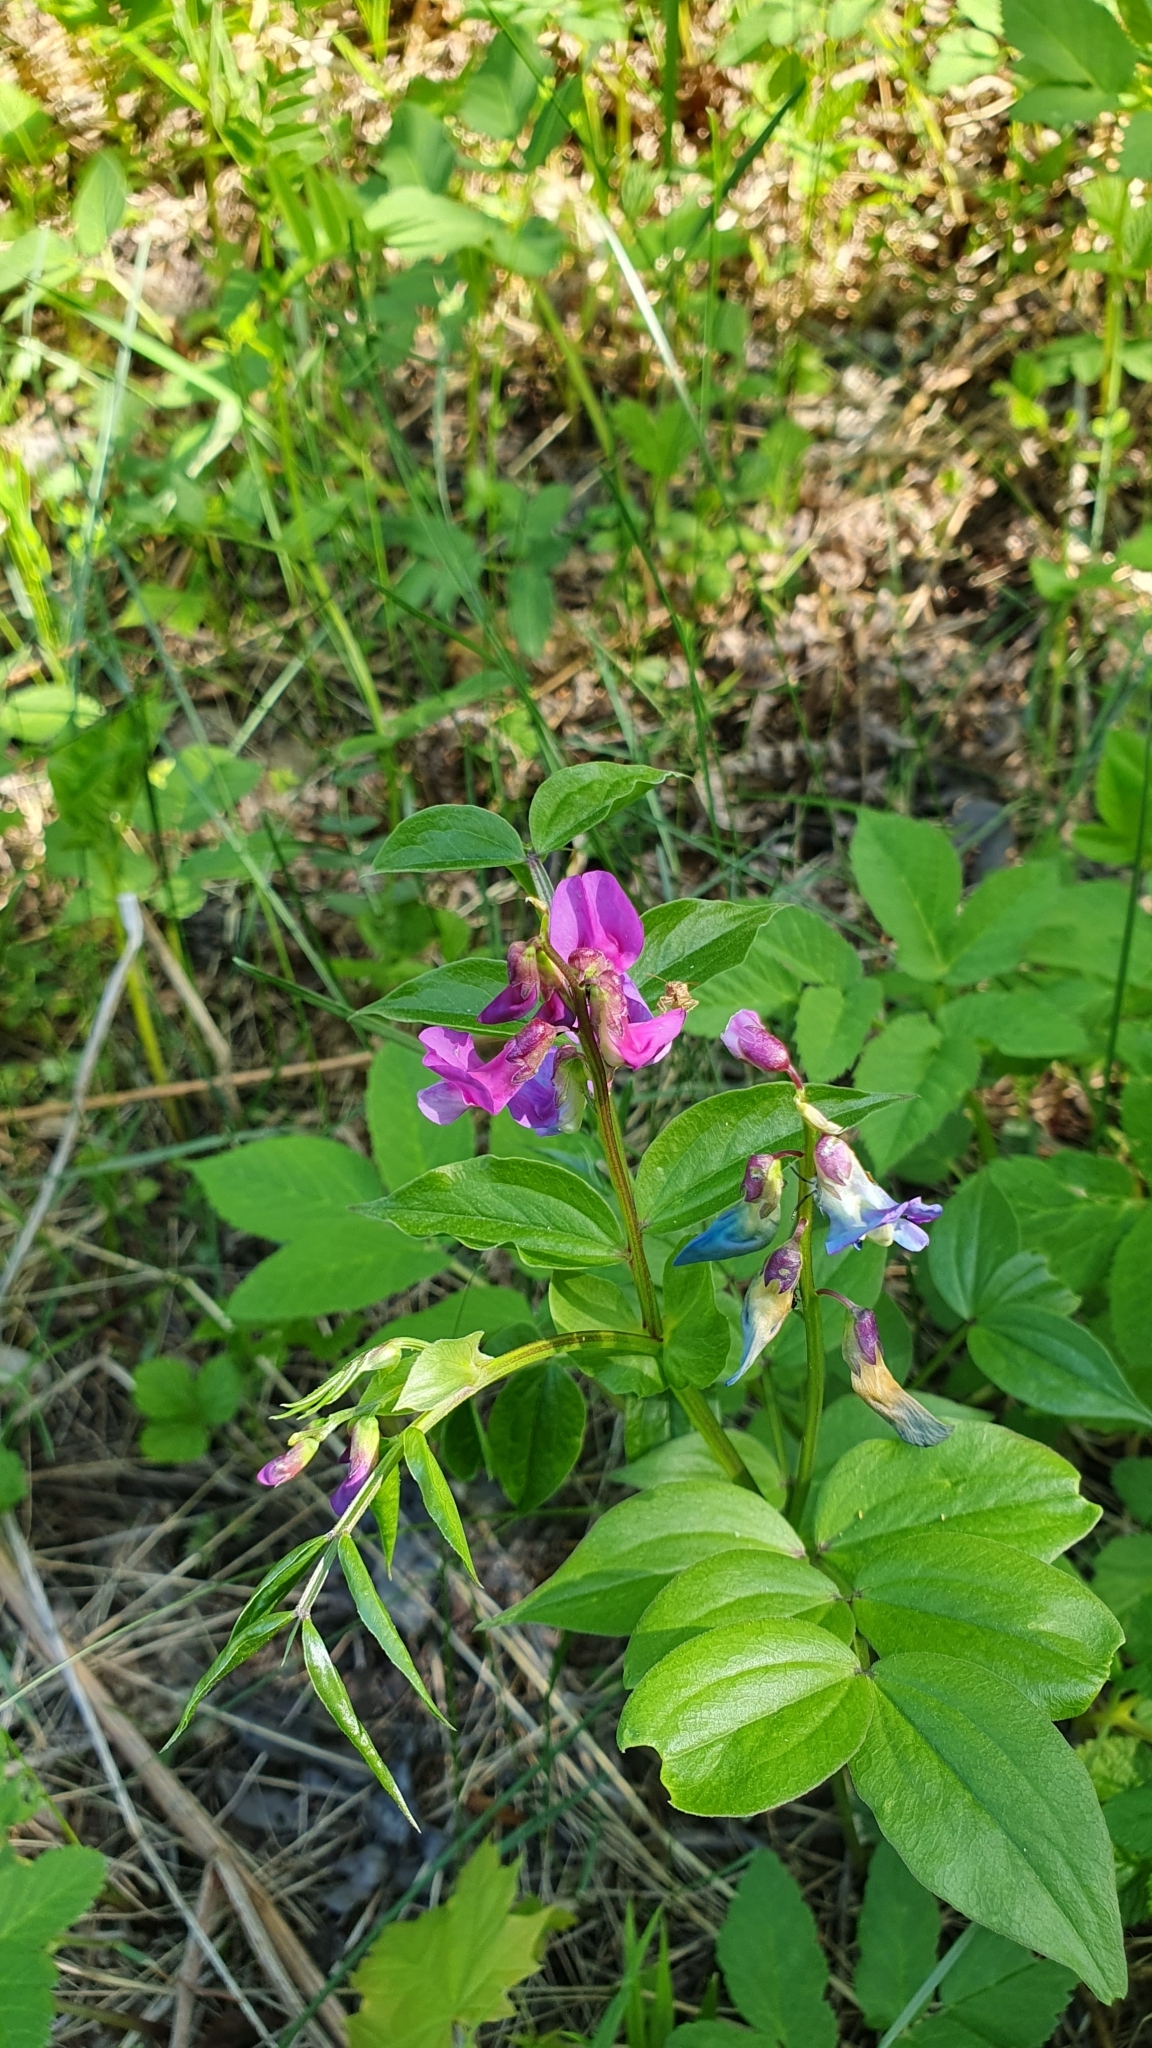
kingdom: Plantae
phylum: Tracheophyta
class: Magnoliopsida
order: Fabales
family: Fabaceae
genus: Lathyrus
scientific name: Lathyrus vernus
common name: Spring pea
